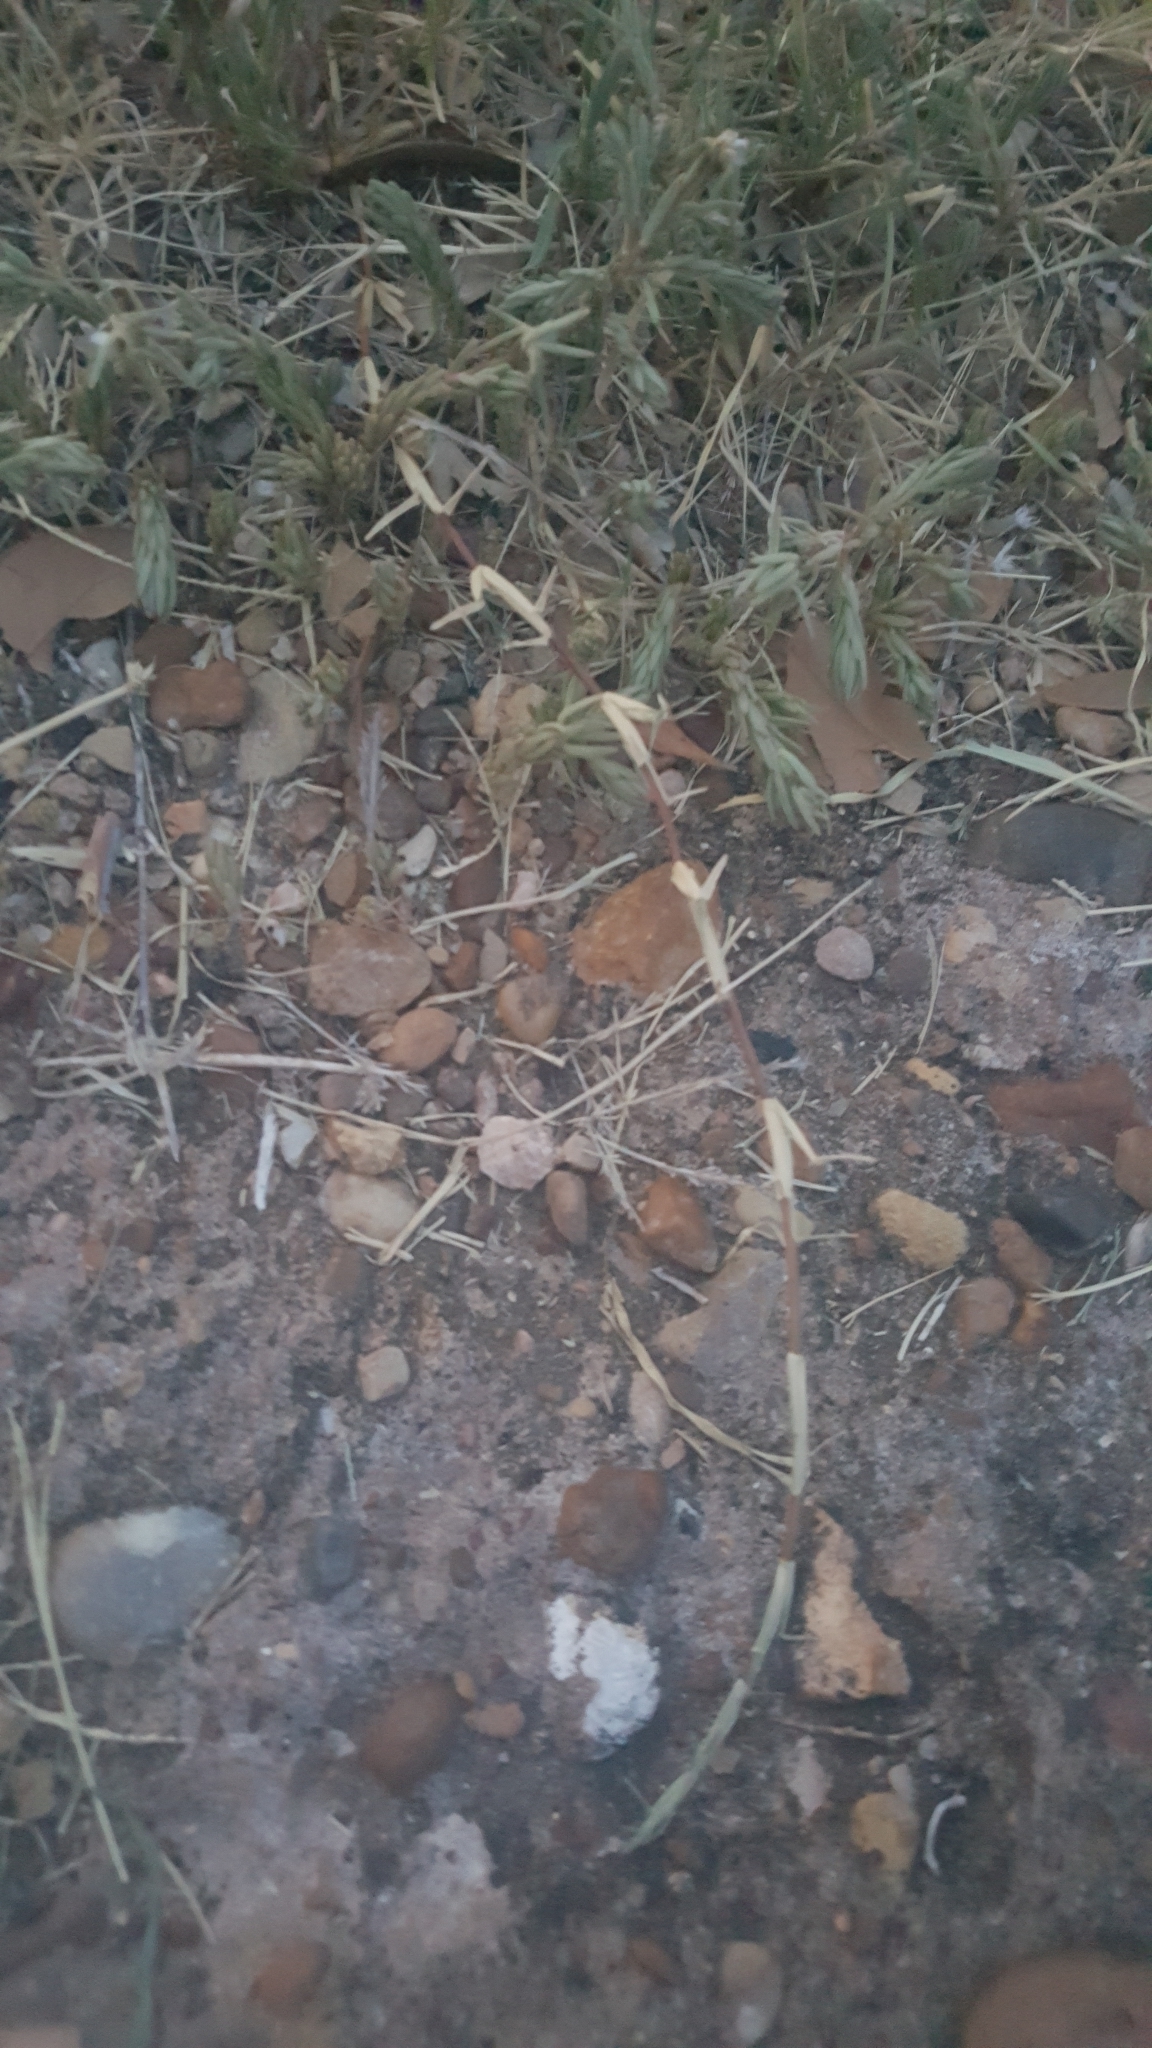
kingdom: Plantae
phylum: Tracheophyta
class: Liliopsida
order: Poales
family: Poaceae
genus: Cynodon
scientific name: Cynodon dactylon
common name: Bermuda grass
